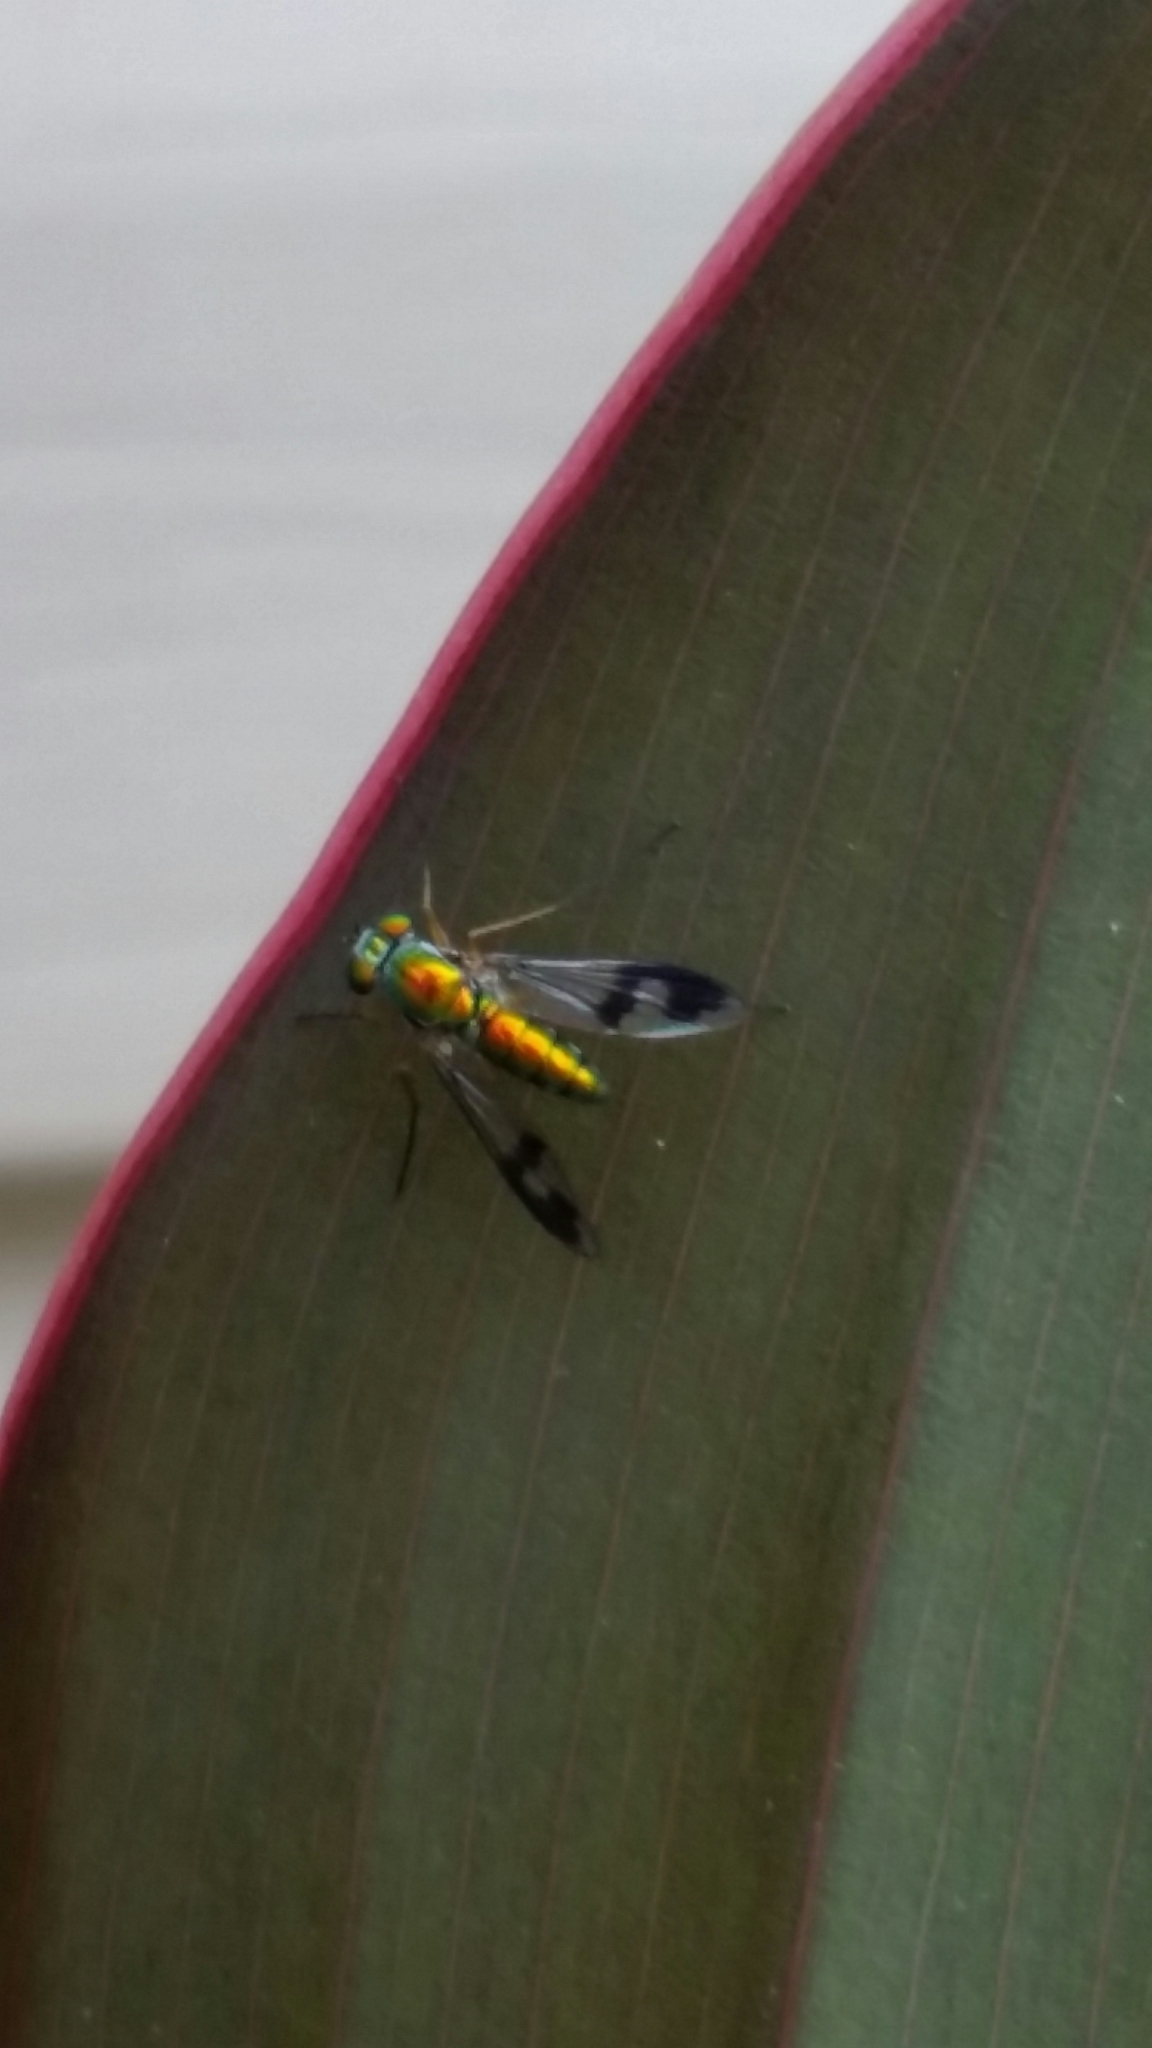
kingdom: Animalia
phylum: Arthropoda
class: Insecta
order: Diptera
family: Dolichopodidae
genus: Condylostylus
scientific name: Condylostylus
